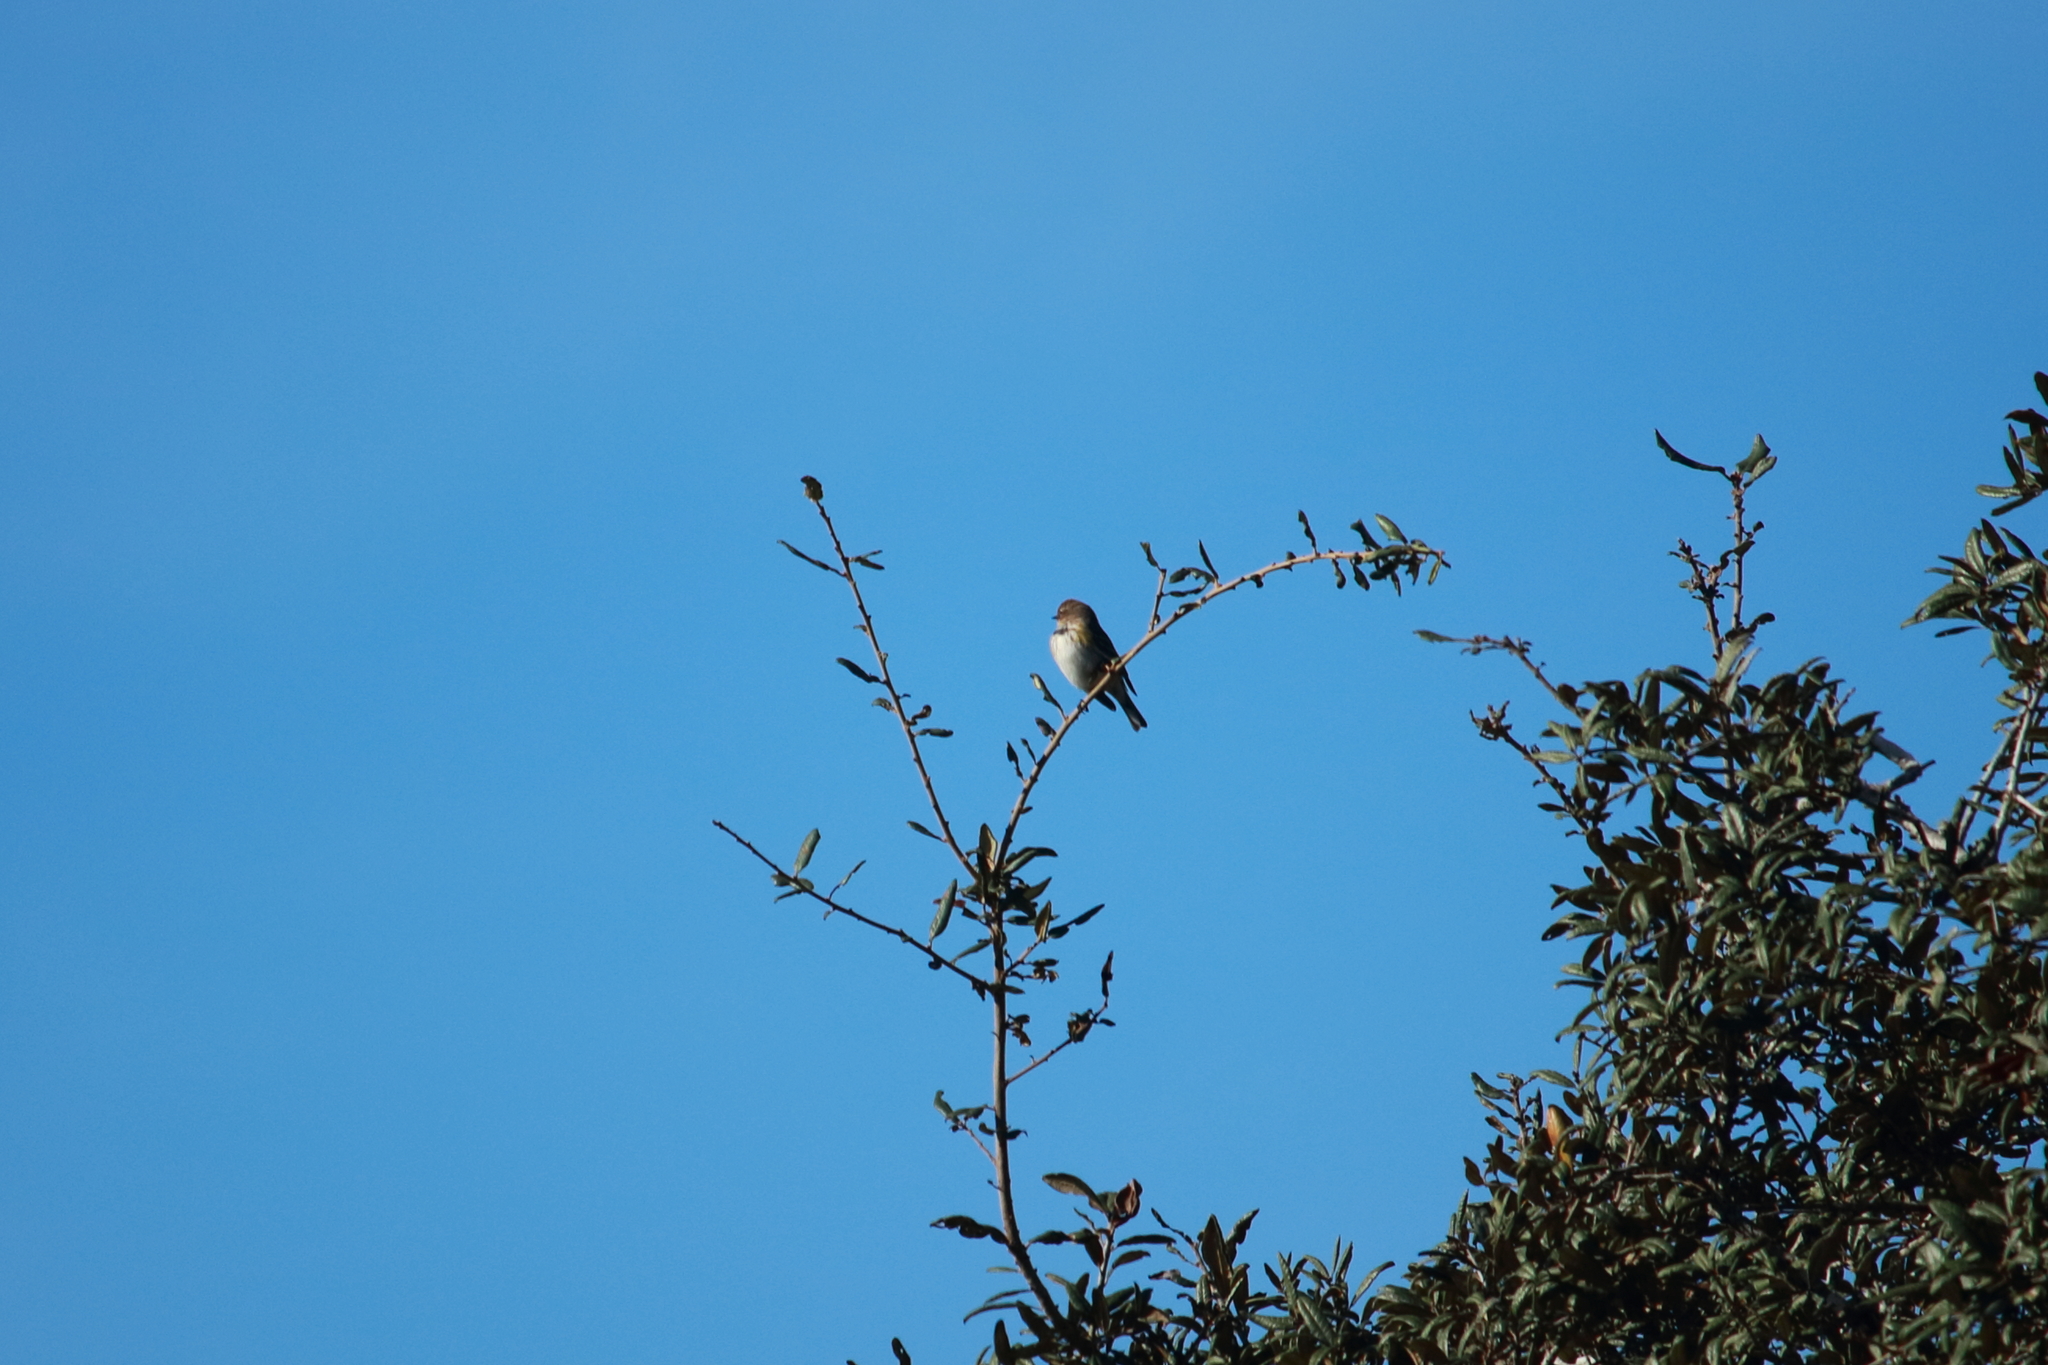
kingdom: Animalia
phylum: Chordata
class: Aves
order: Passeriformes
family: Parulidae
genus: Setophaga
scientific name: Setophaga coronata
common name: Myrtle warbler
